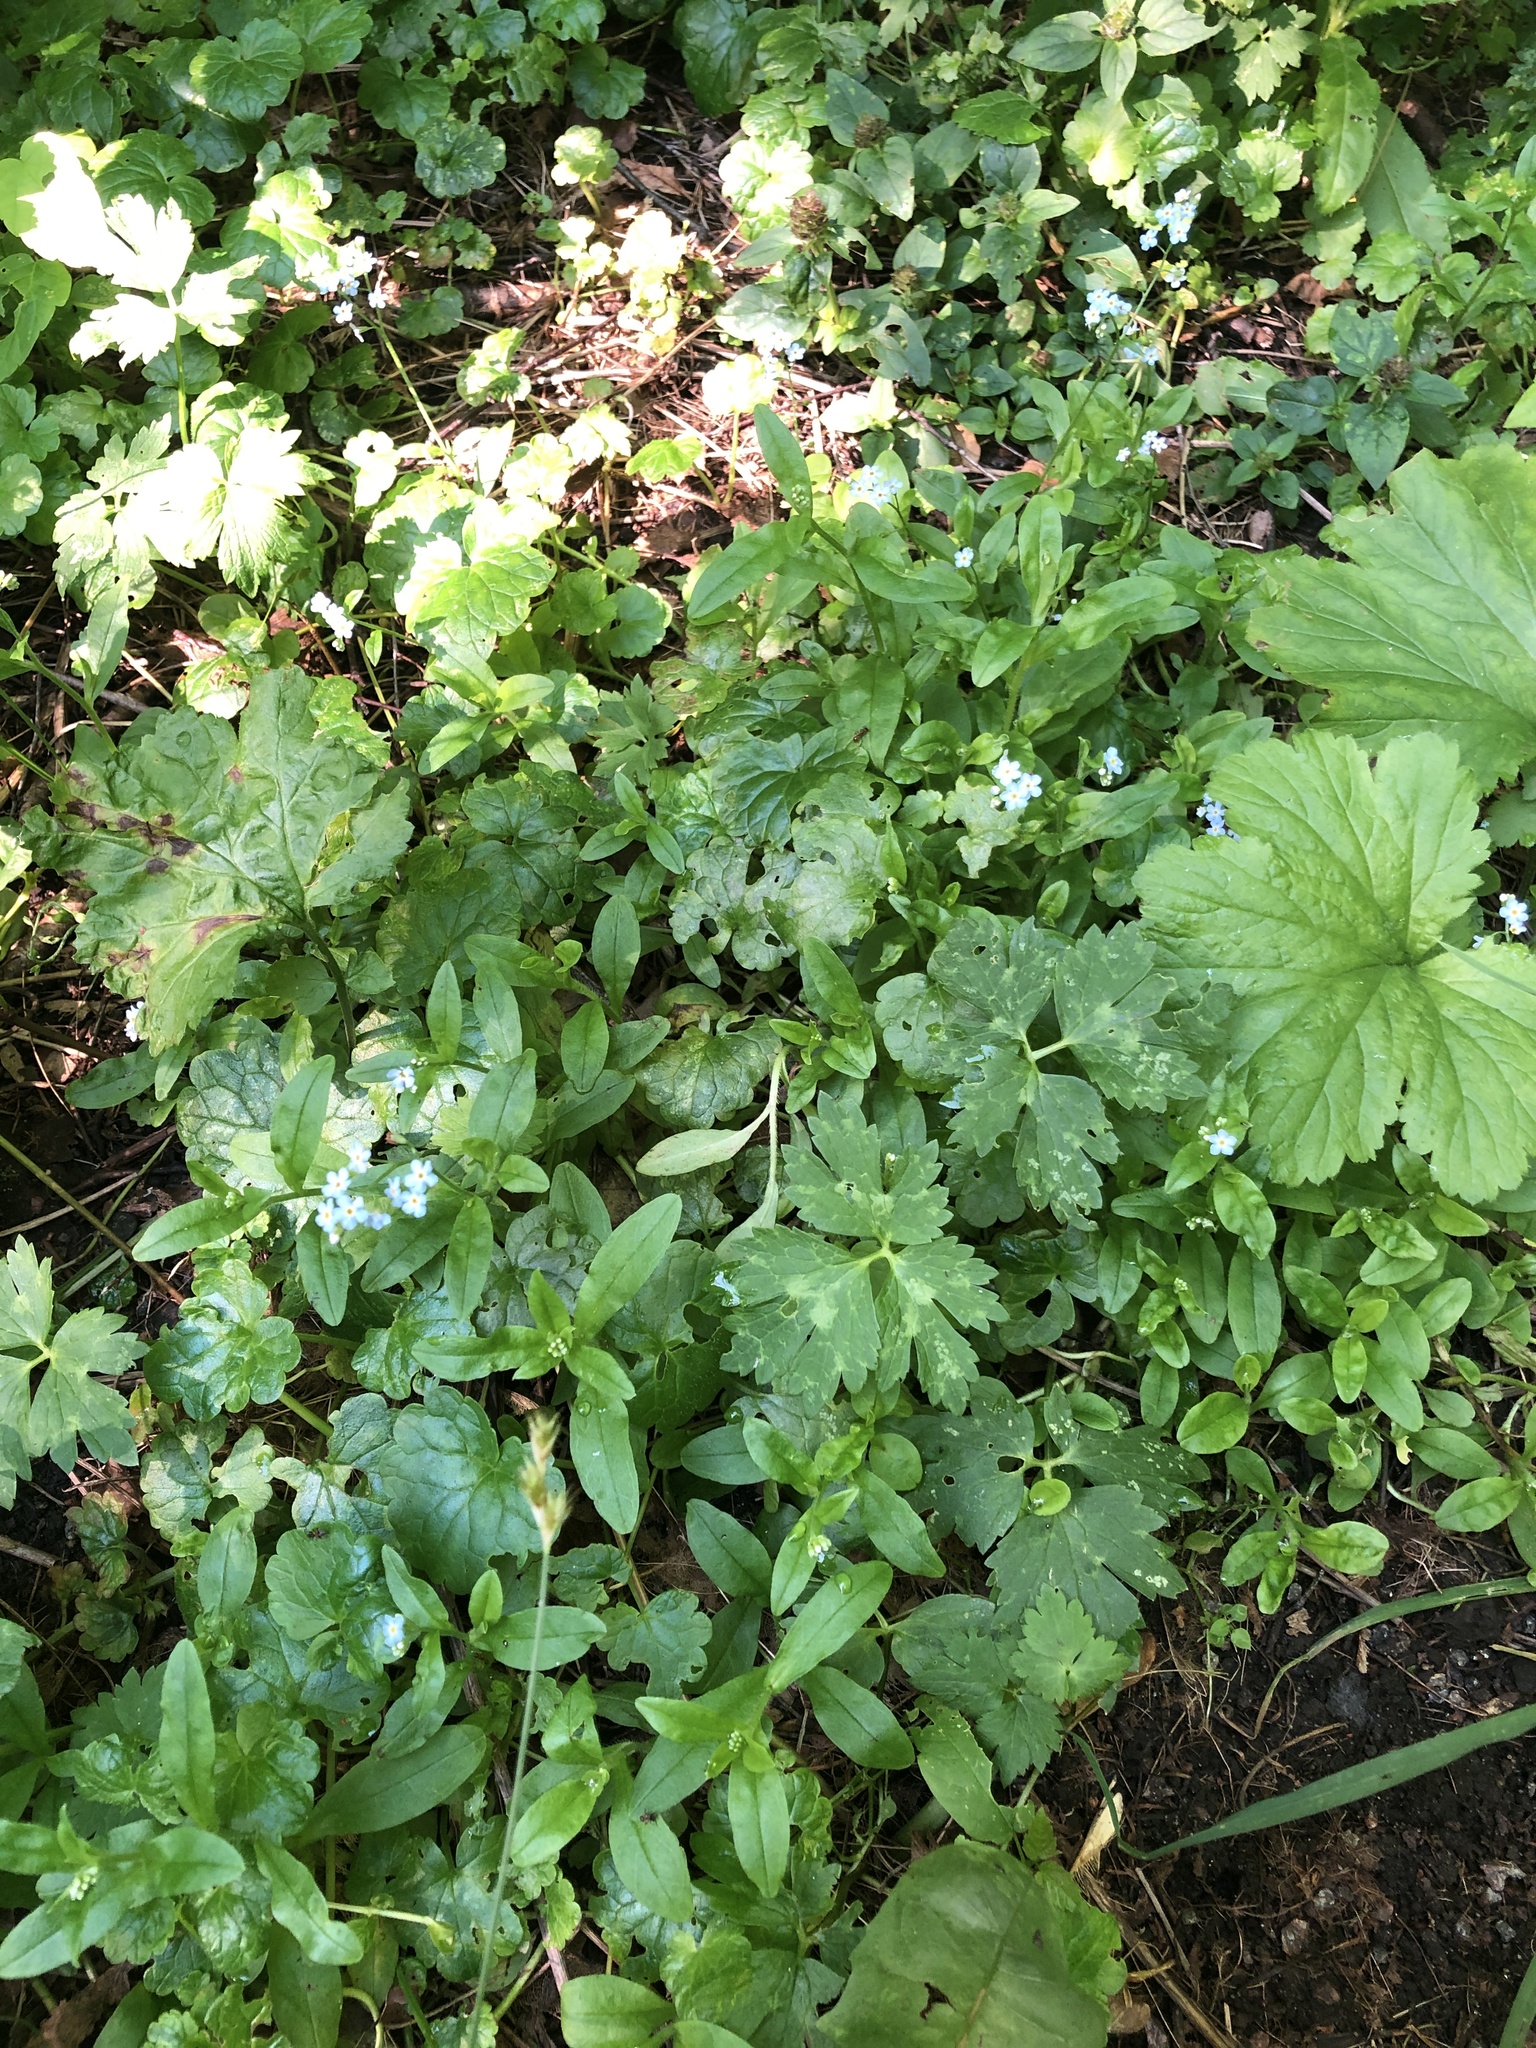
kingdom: Plantae
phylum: Tracheophyta
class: Magnoliopsida
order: Boraginales
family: Boraginaceae
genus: Myosotis
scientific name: Myosotis scorpioides
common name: Water forget-me-not
